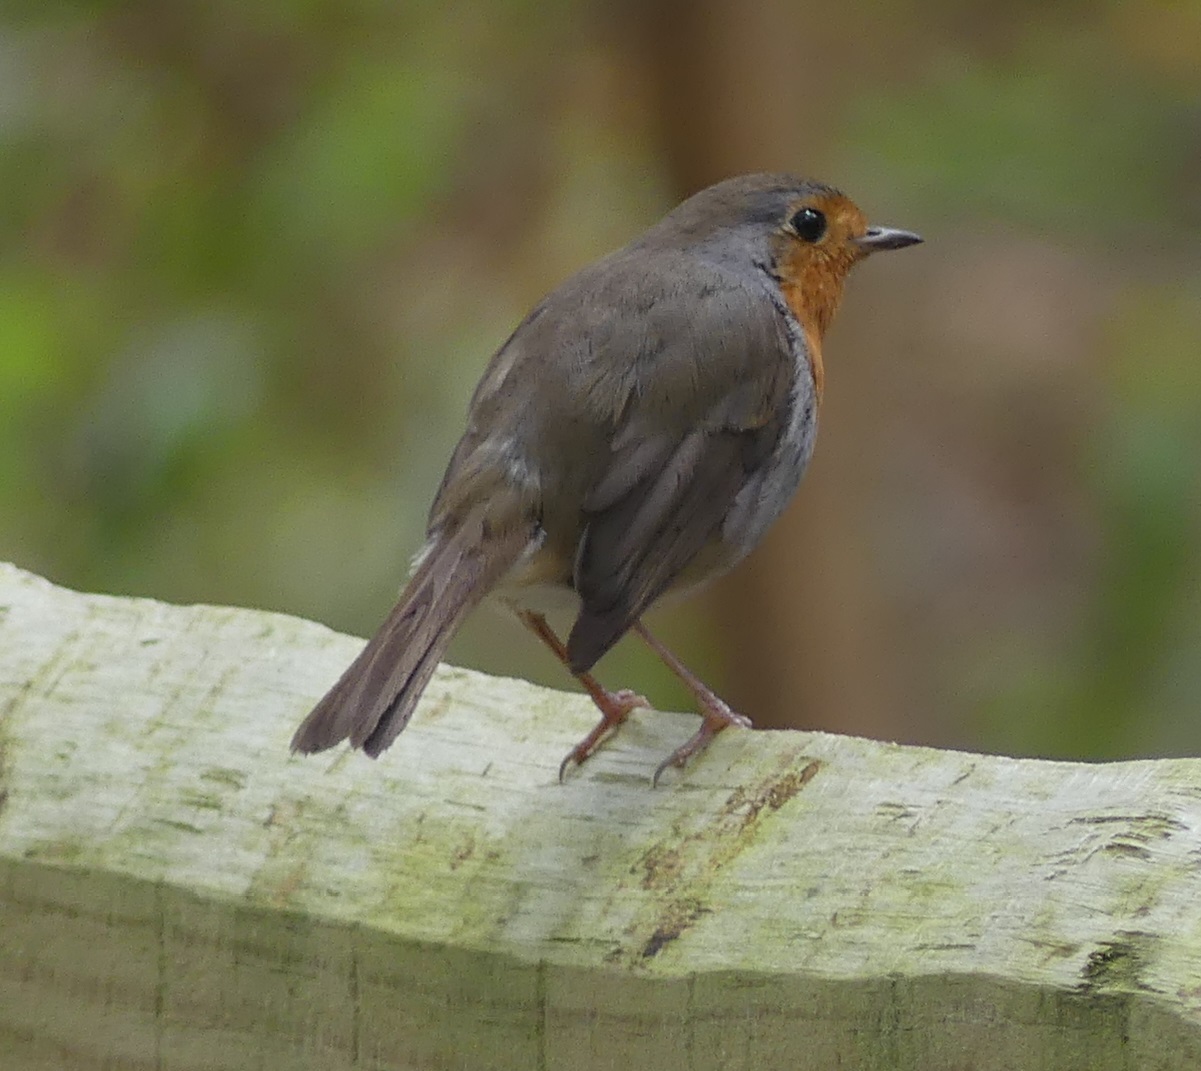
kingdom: Animalia
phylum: Chordata
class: Aves
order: Passeriformes
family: Muscicapidae
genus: Erithacus
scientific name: Erithacus rubecula
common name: European robin
